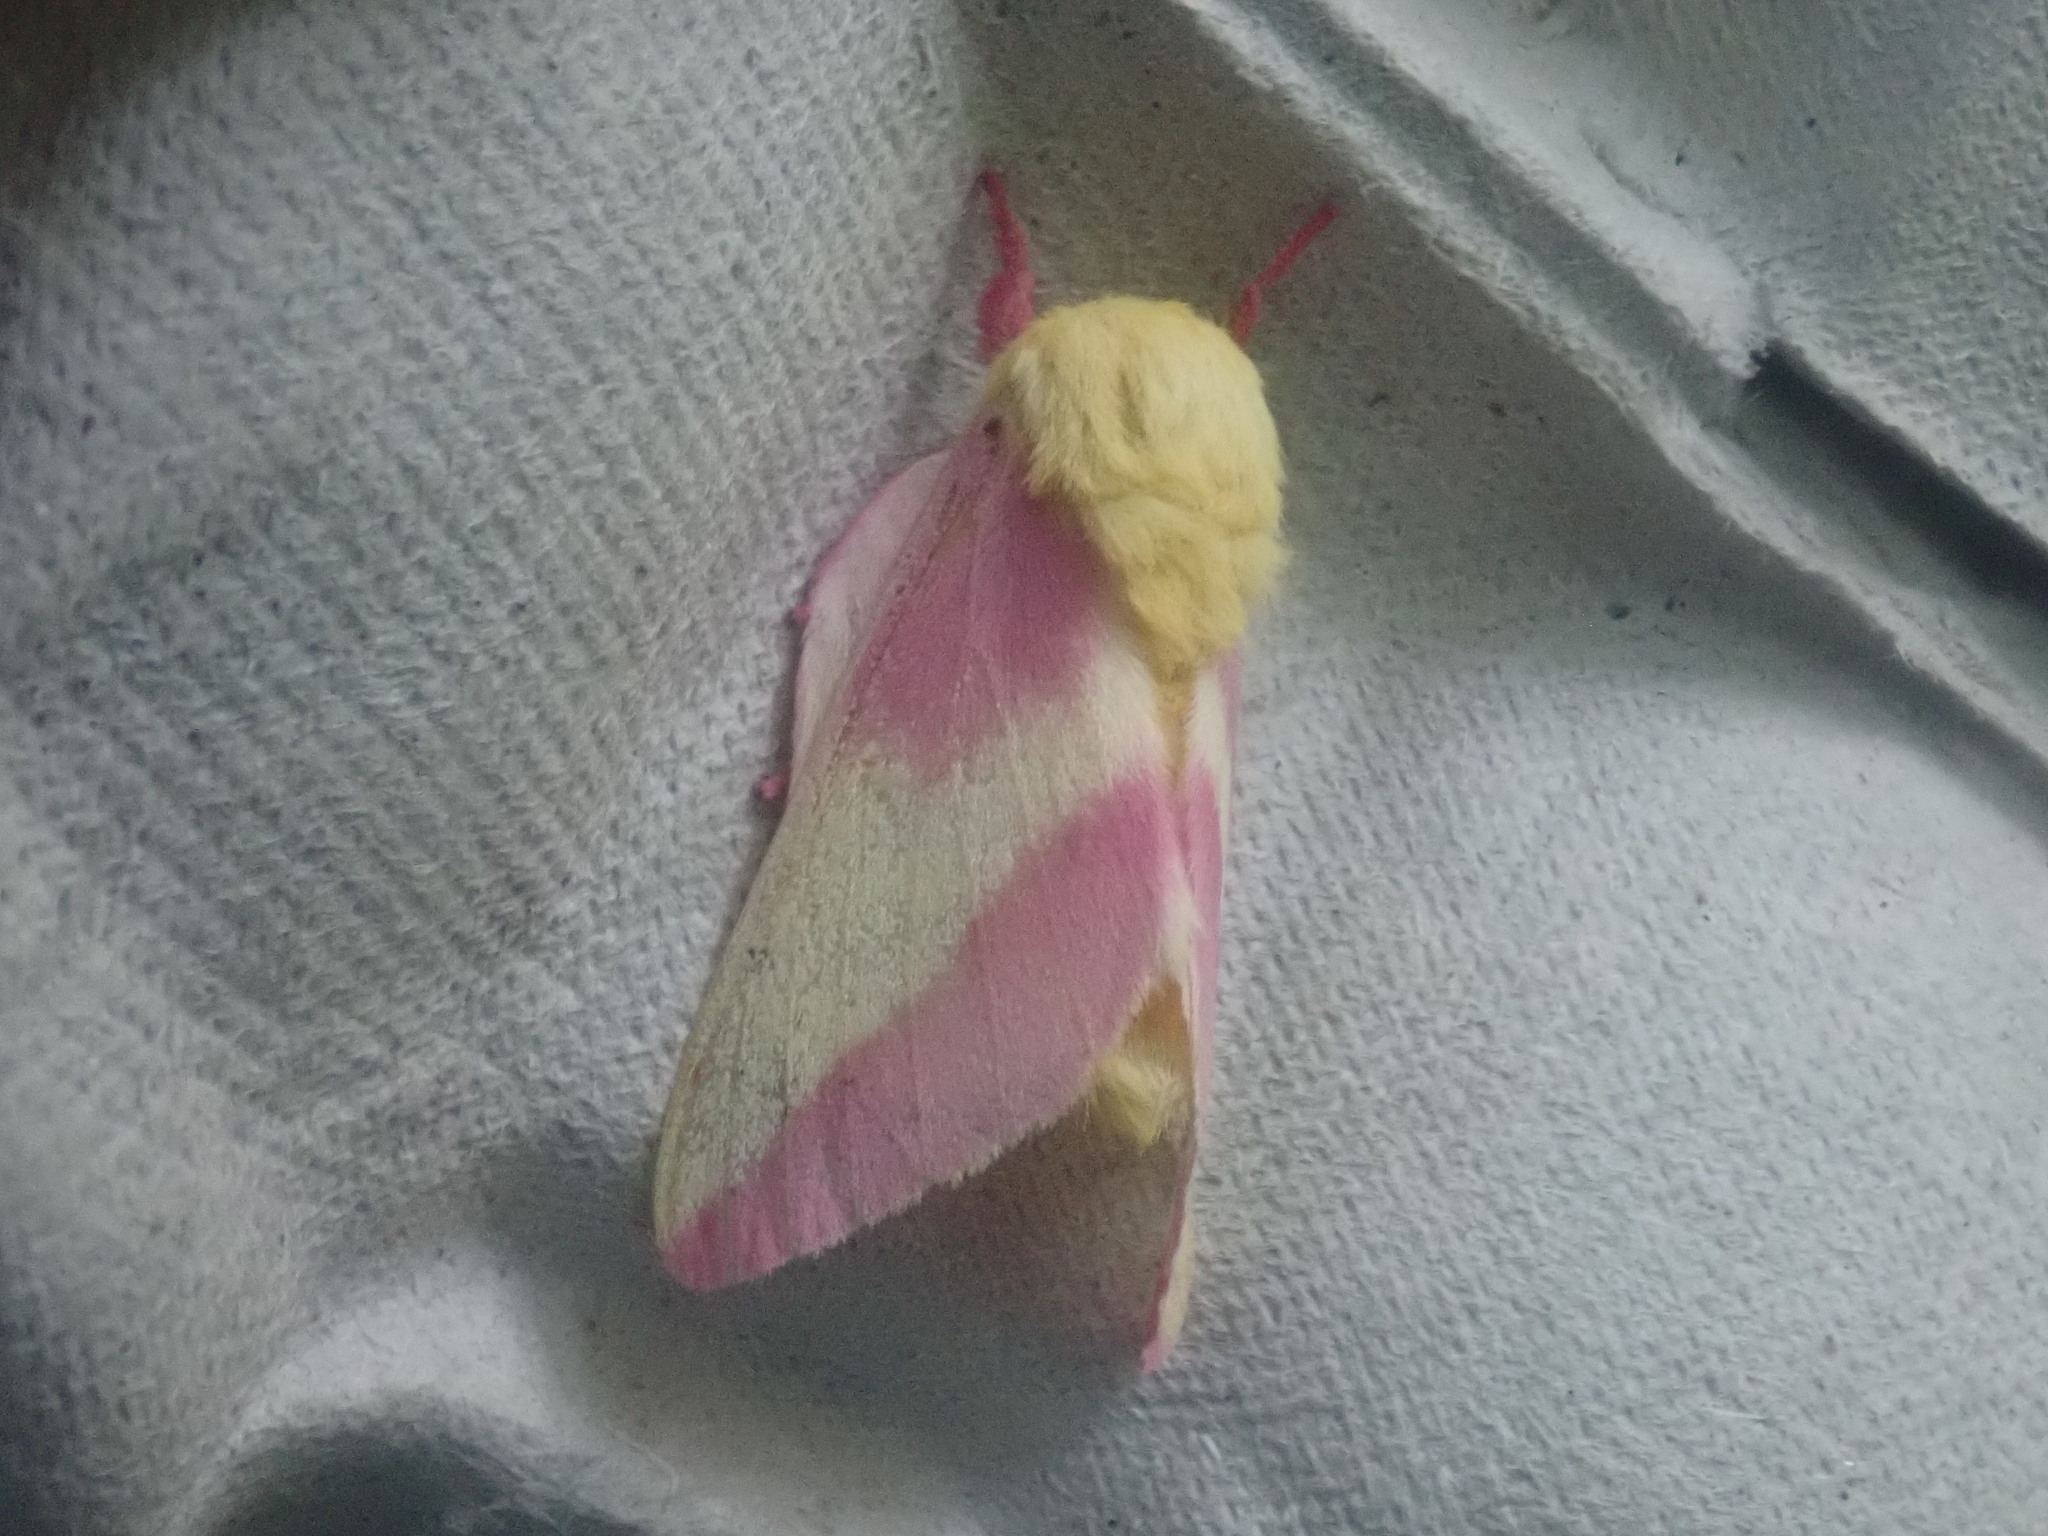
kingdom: Animalia
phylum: Arthropoda
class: Insecta
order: Lepidoptera
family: Saturniidae
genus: Dryocampa
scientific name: Dryocampa rubicunda
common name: Rosy maple moth
